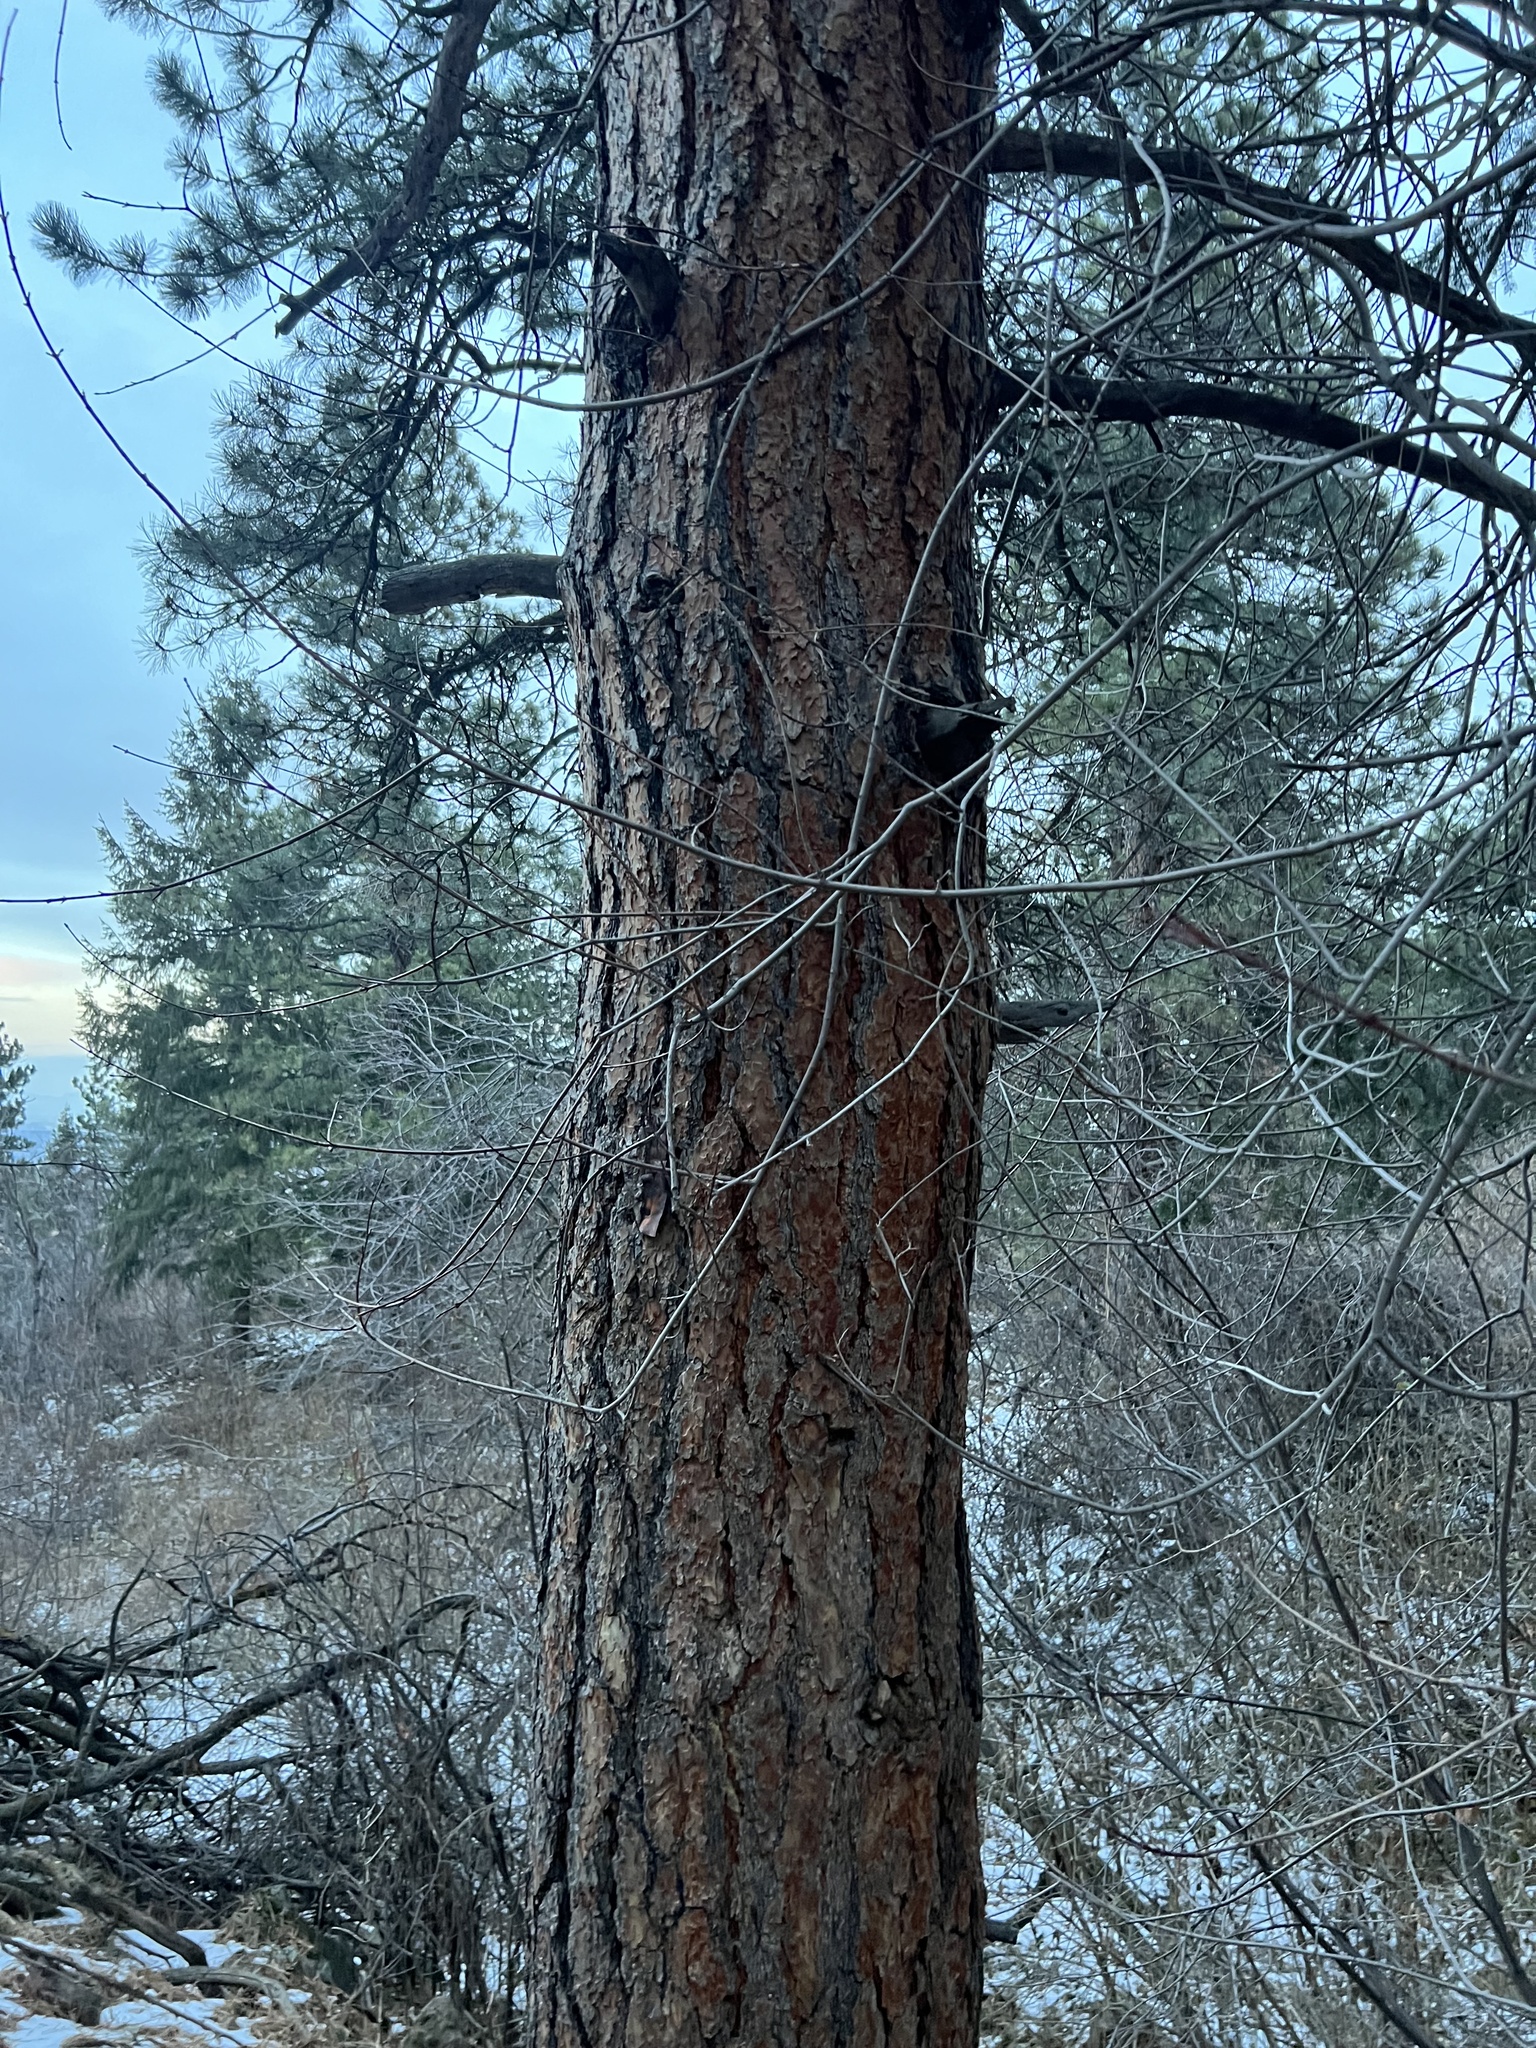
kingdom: Plantae
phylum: Tracheophyta
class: Pinopsida
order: Pinales
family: Pinaceae
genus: Pinus
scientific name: Pinus ponderosa
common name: Western yellow-pine
